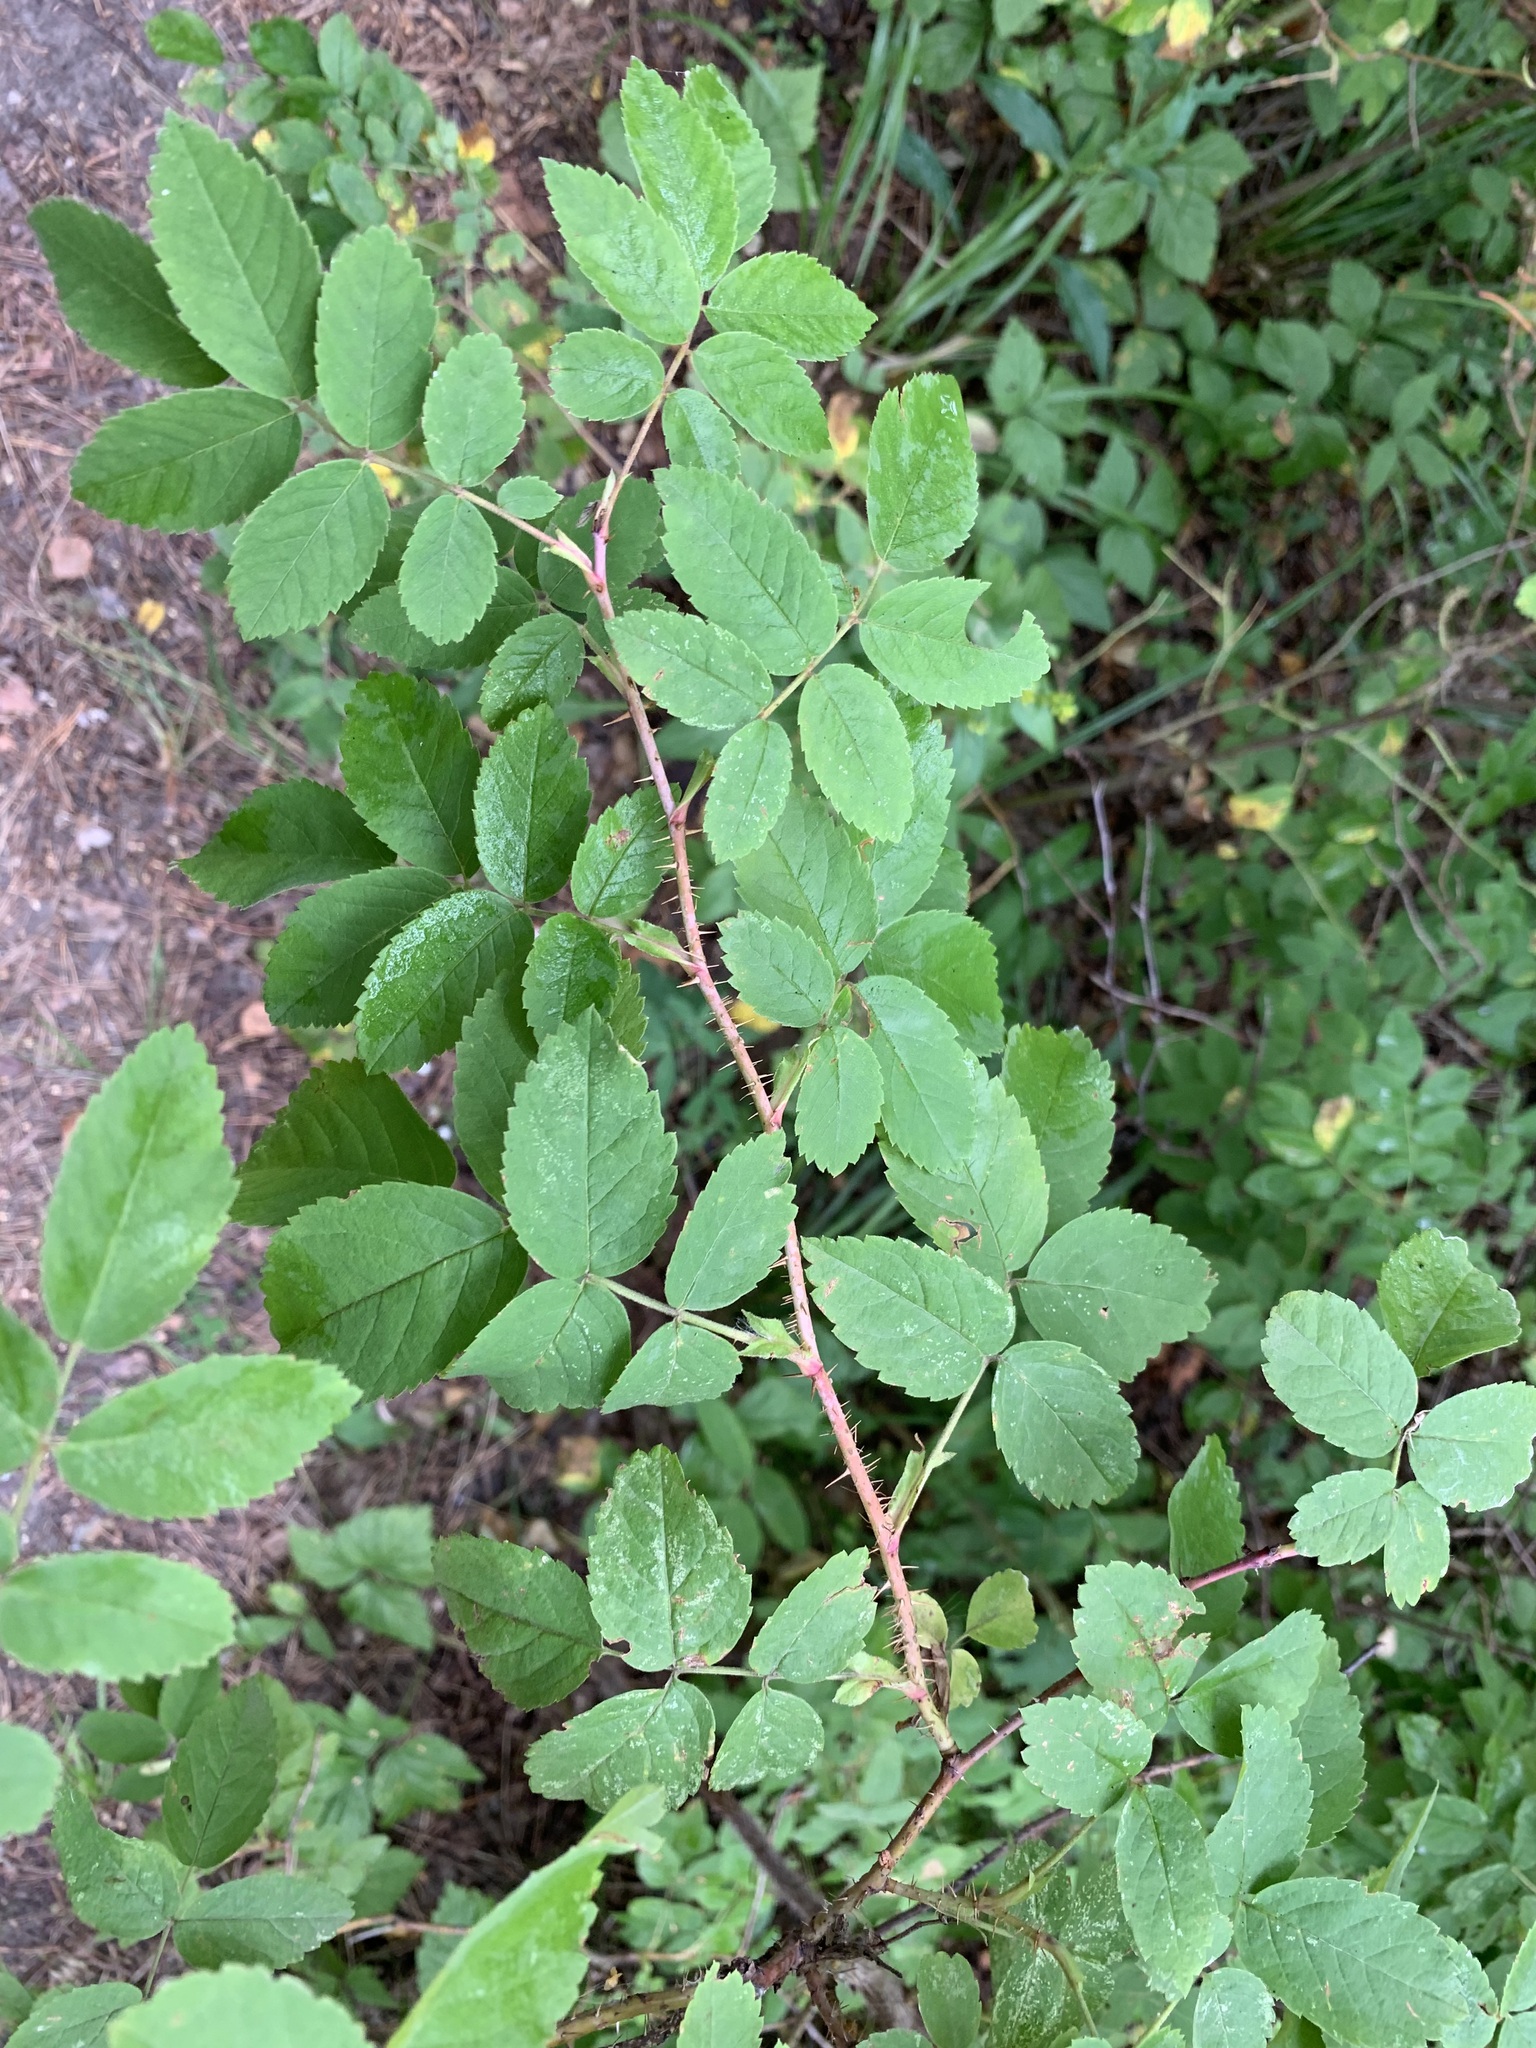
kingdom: Plantae
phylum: Tracheophyta
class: Magnoliopsida
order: Rosales
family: Rosaceae
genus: Rosa
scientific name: Rosa acicularis
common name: Prickly rose
